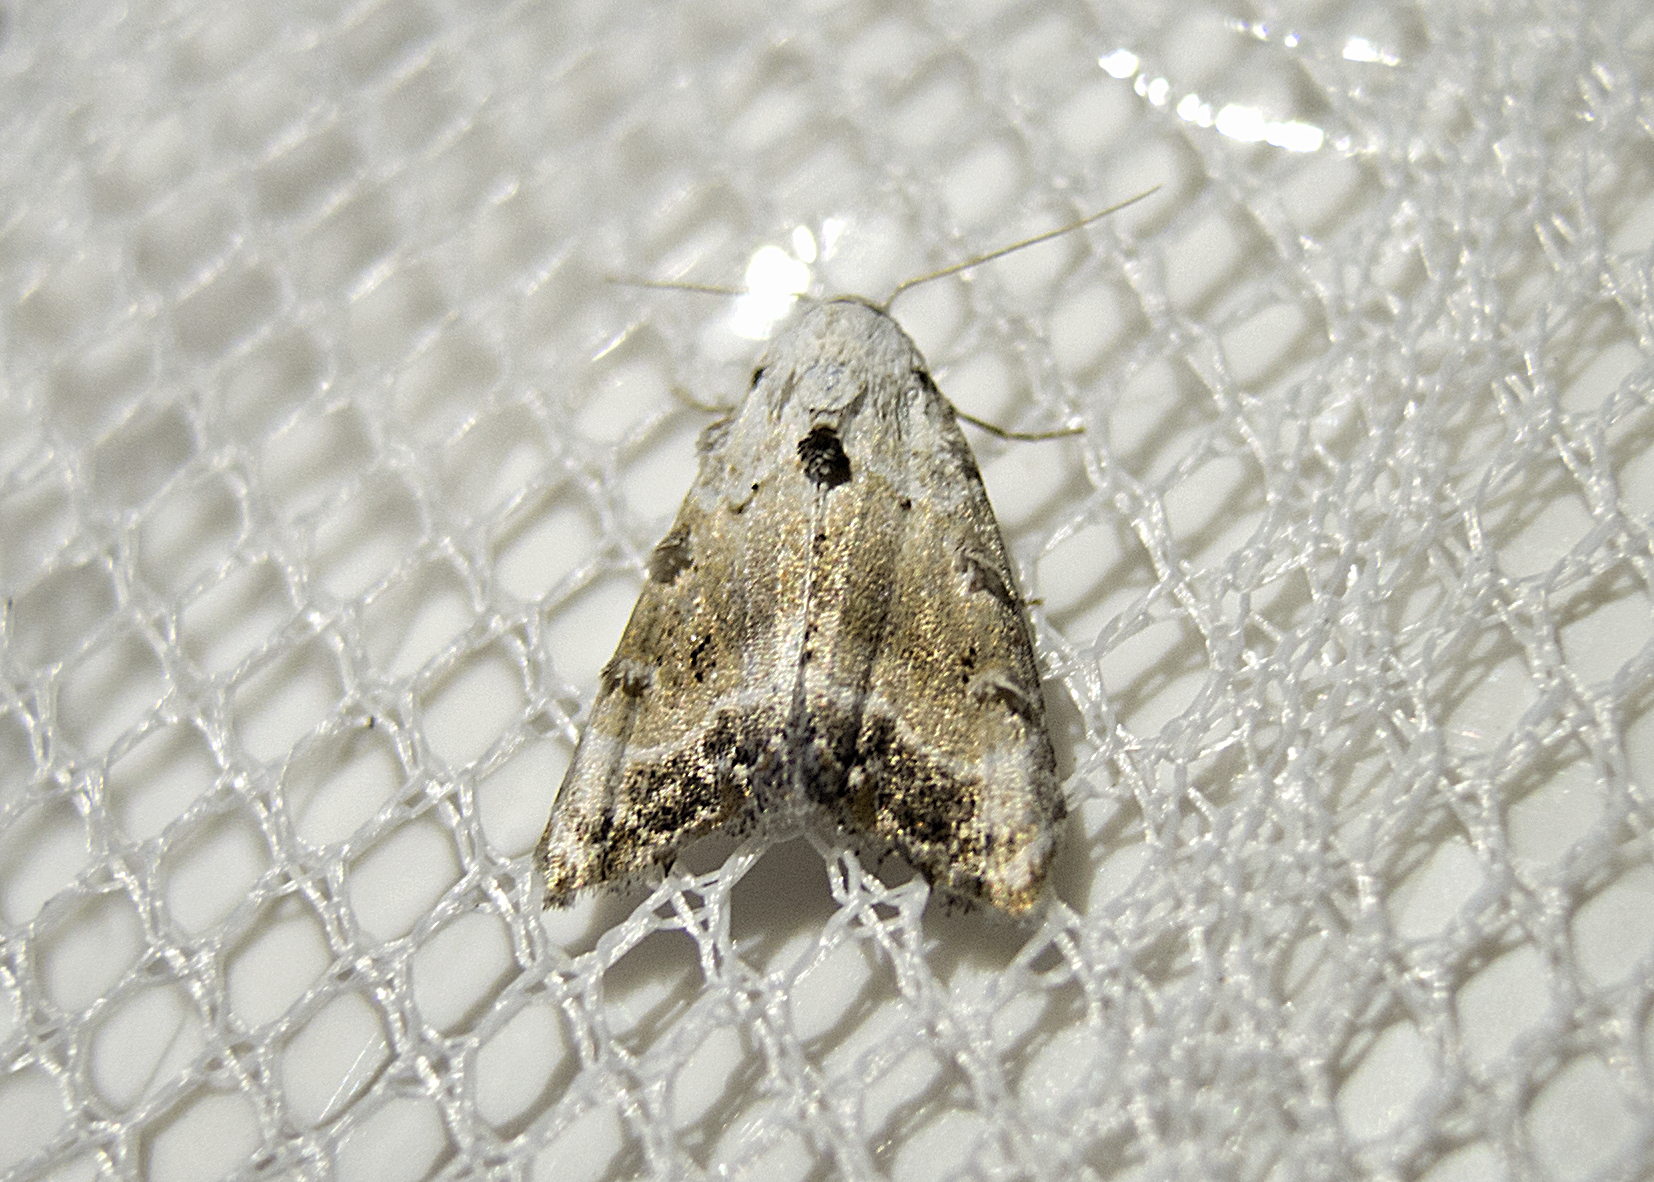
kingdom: Animalia
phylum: Arthropoda
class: Insecta
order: Lepidoptera
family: Nolidae
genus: Nola
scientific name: Nola chlamitulalis
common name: Jersey black arches
